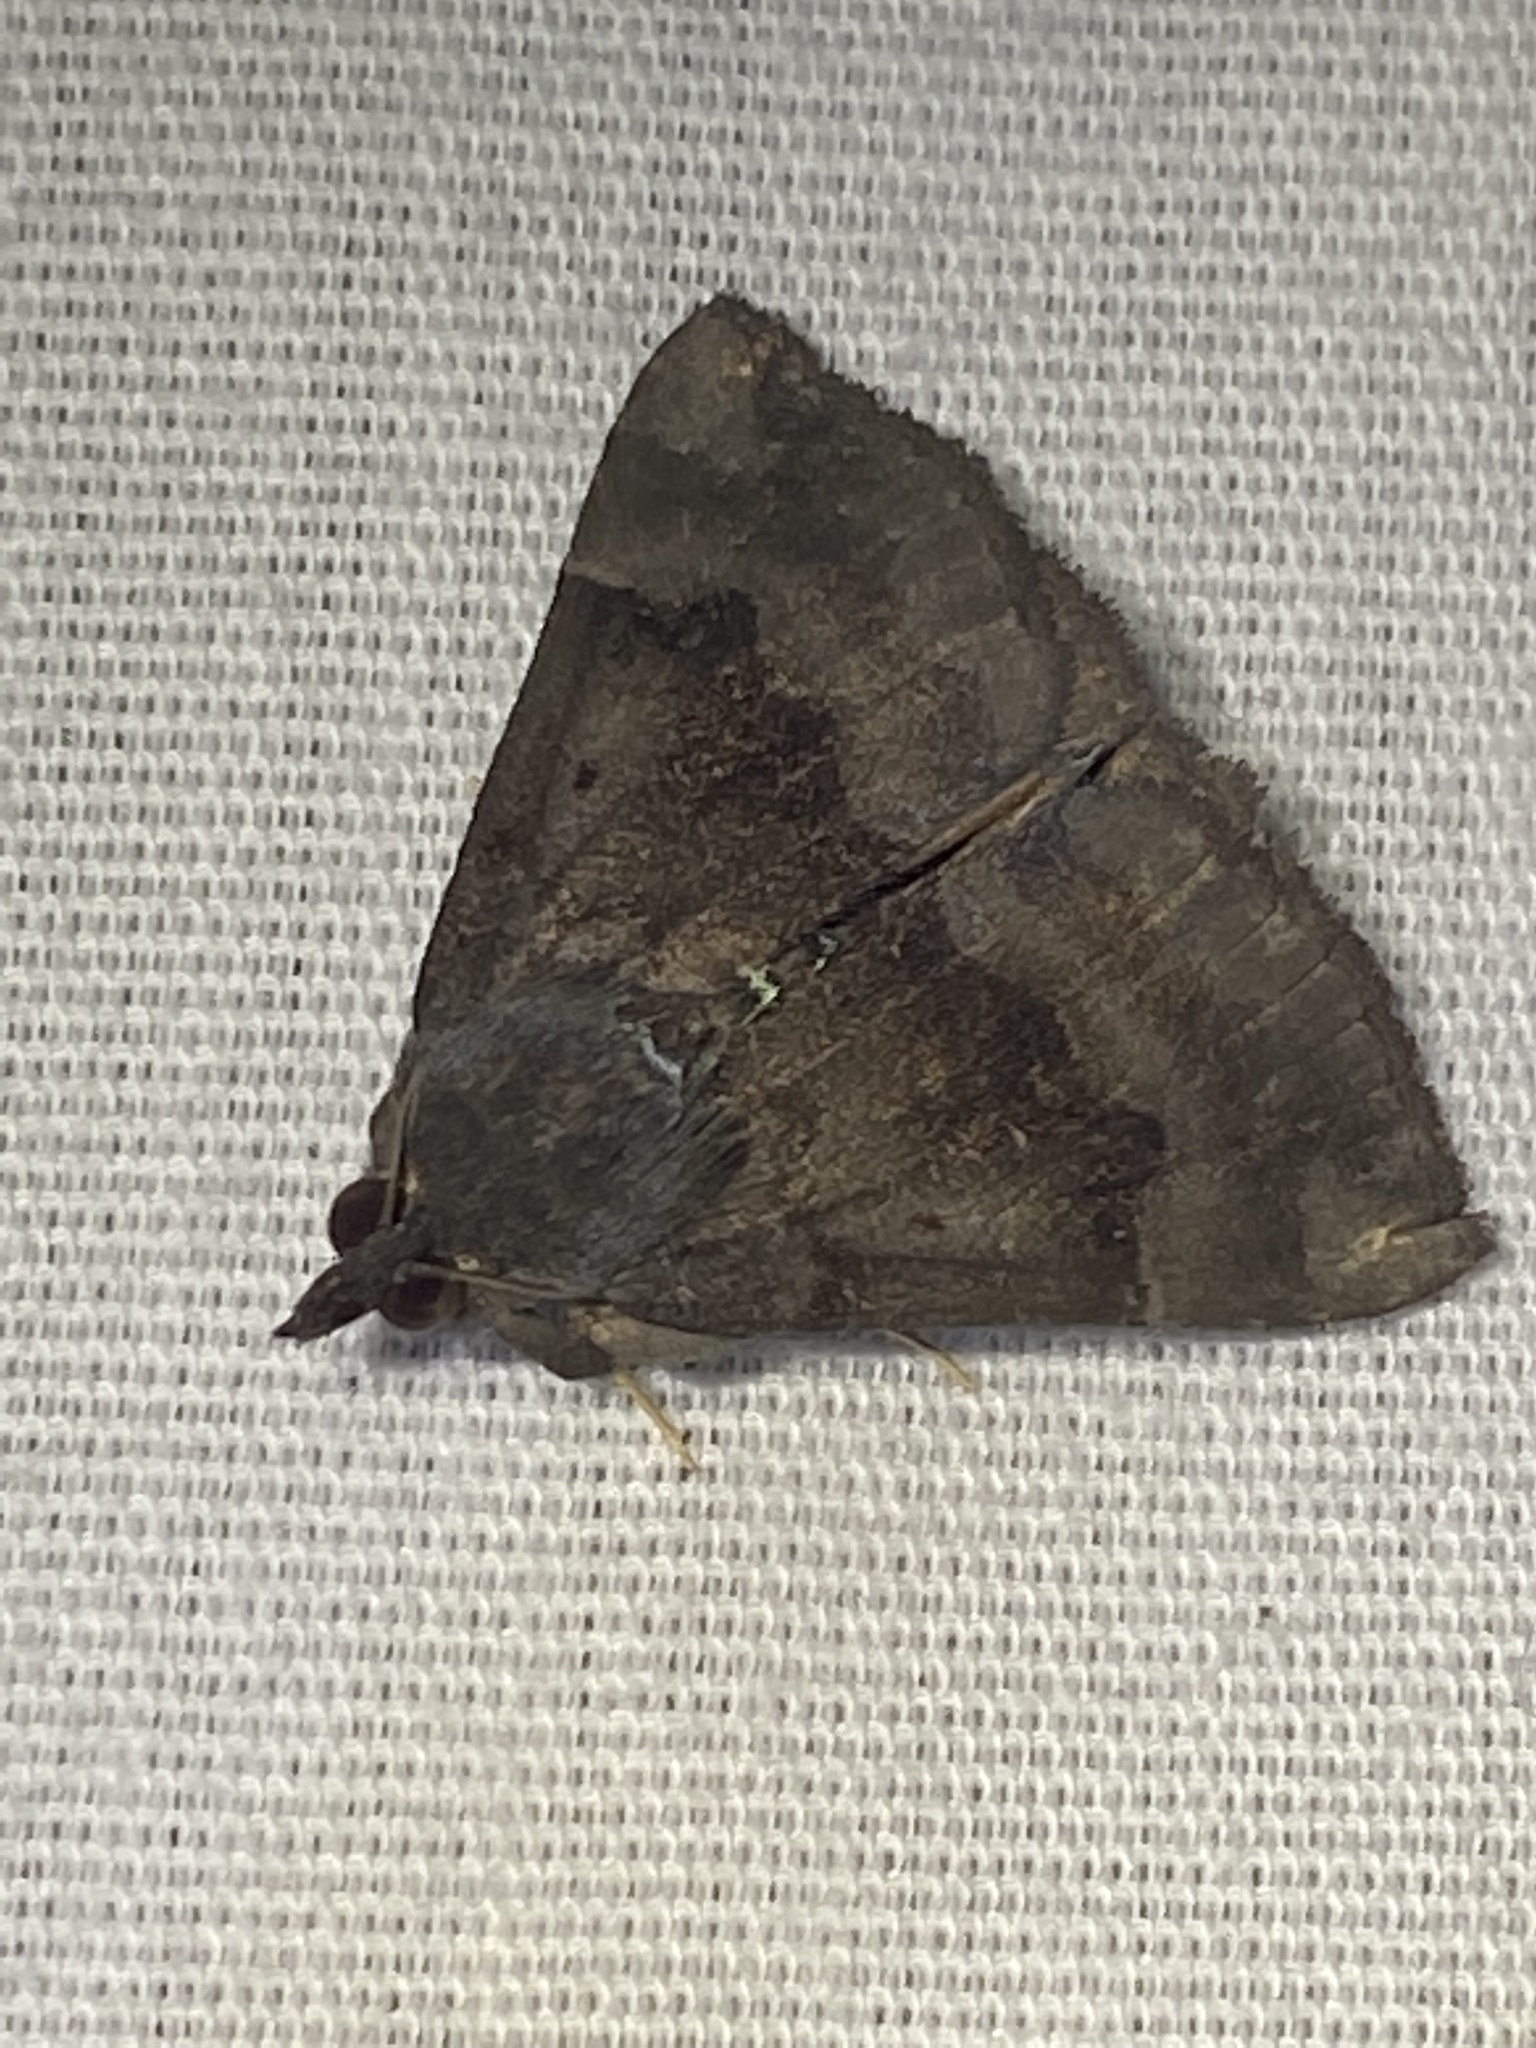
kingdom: Animalia
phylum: Arthropoda
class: Insecta
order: Lepidoptera
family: Erebidae
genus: Hypena
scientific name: Hypena madefactalis
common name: Gray-edged snout
